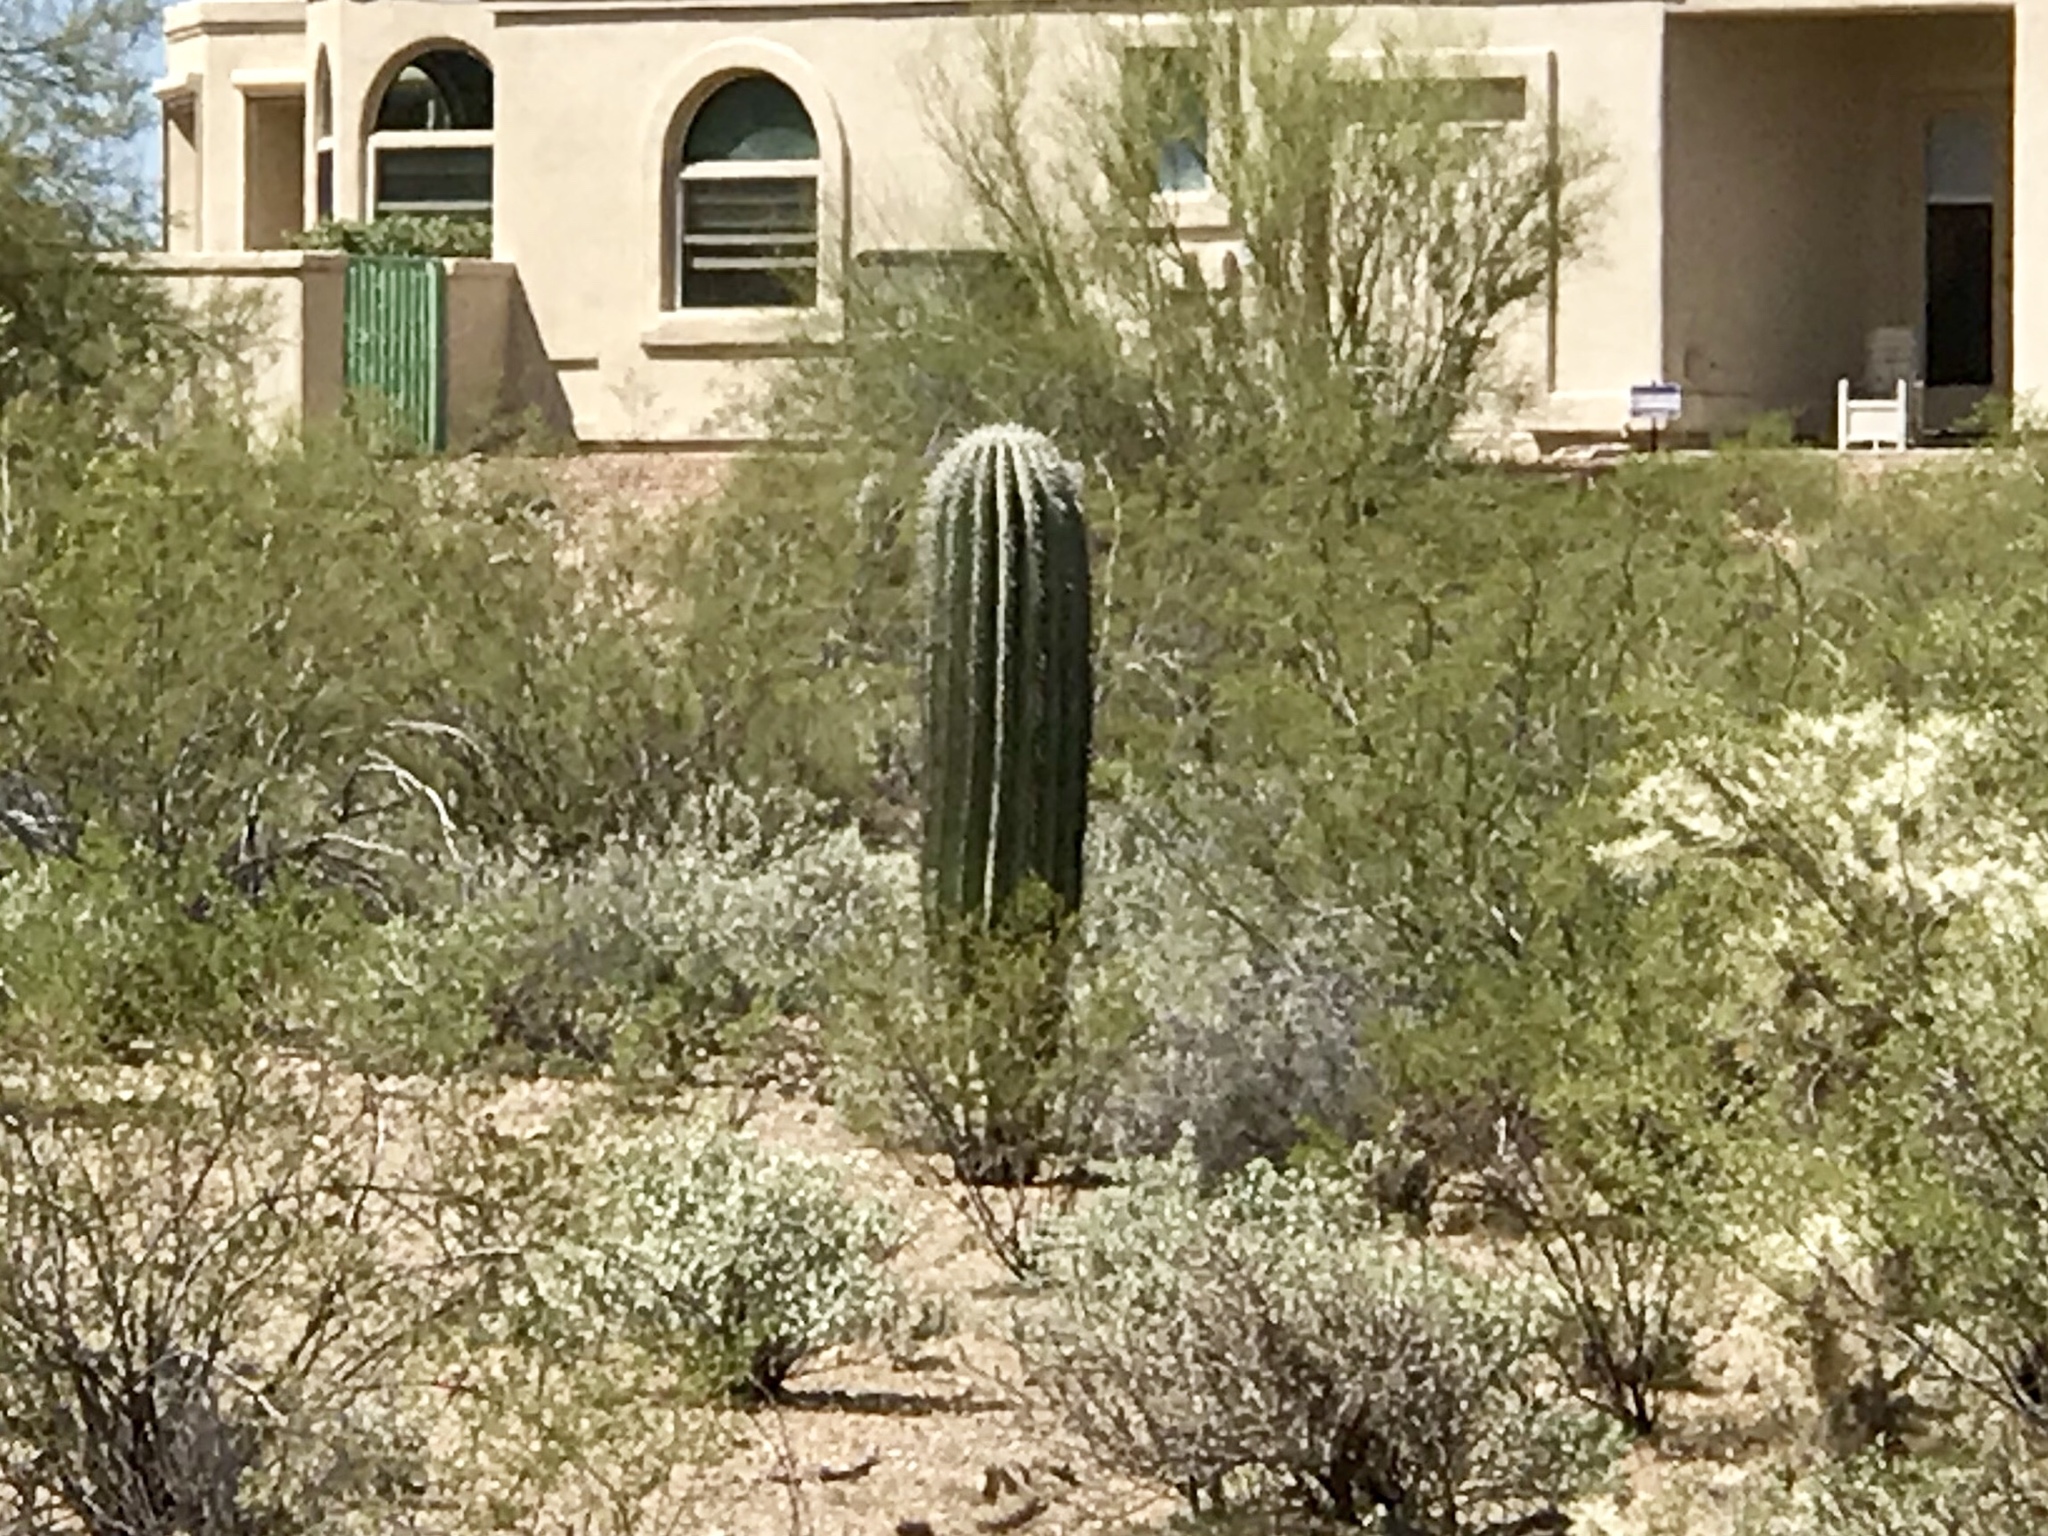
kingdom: Plantae
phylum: Tracheophyta
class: Magnoliopsida
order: Caryophyllales
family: Cactaceae
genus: Carnegiea
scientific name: Carnegiea gigantea
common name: Saguaro
